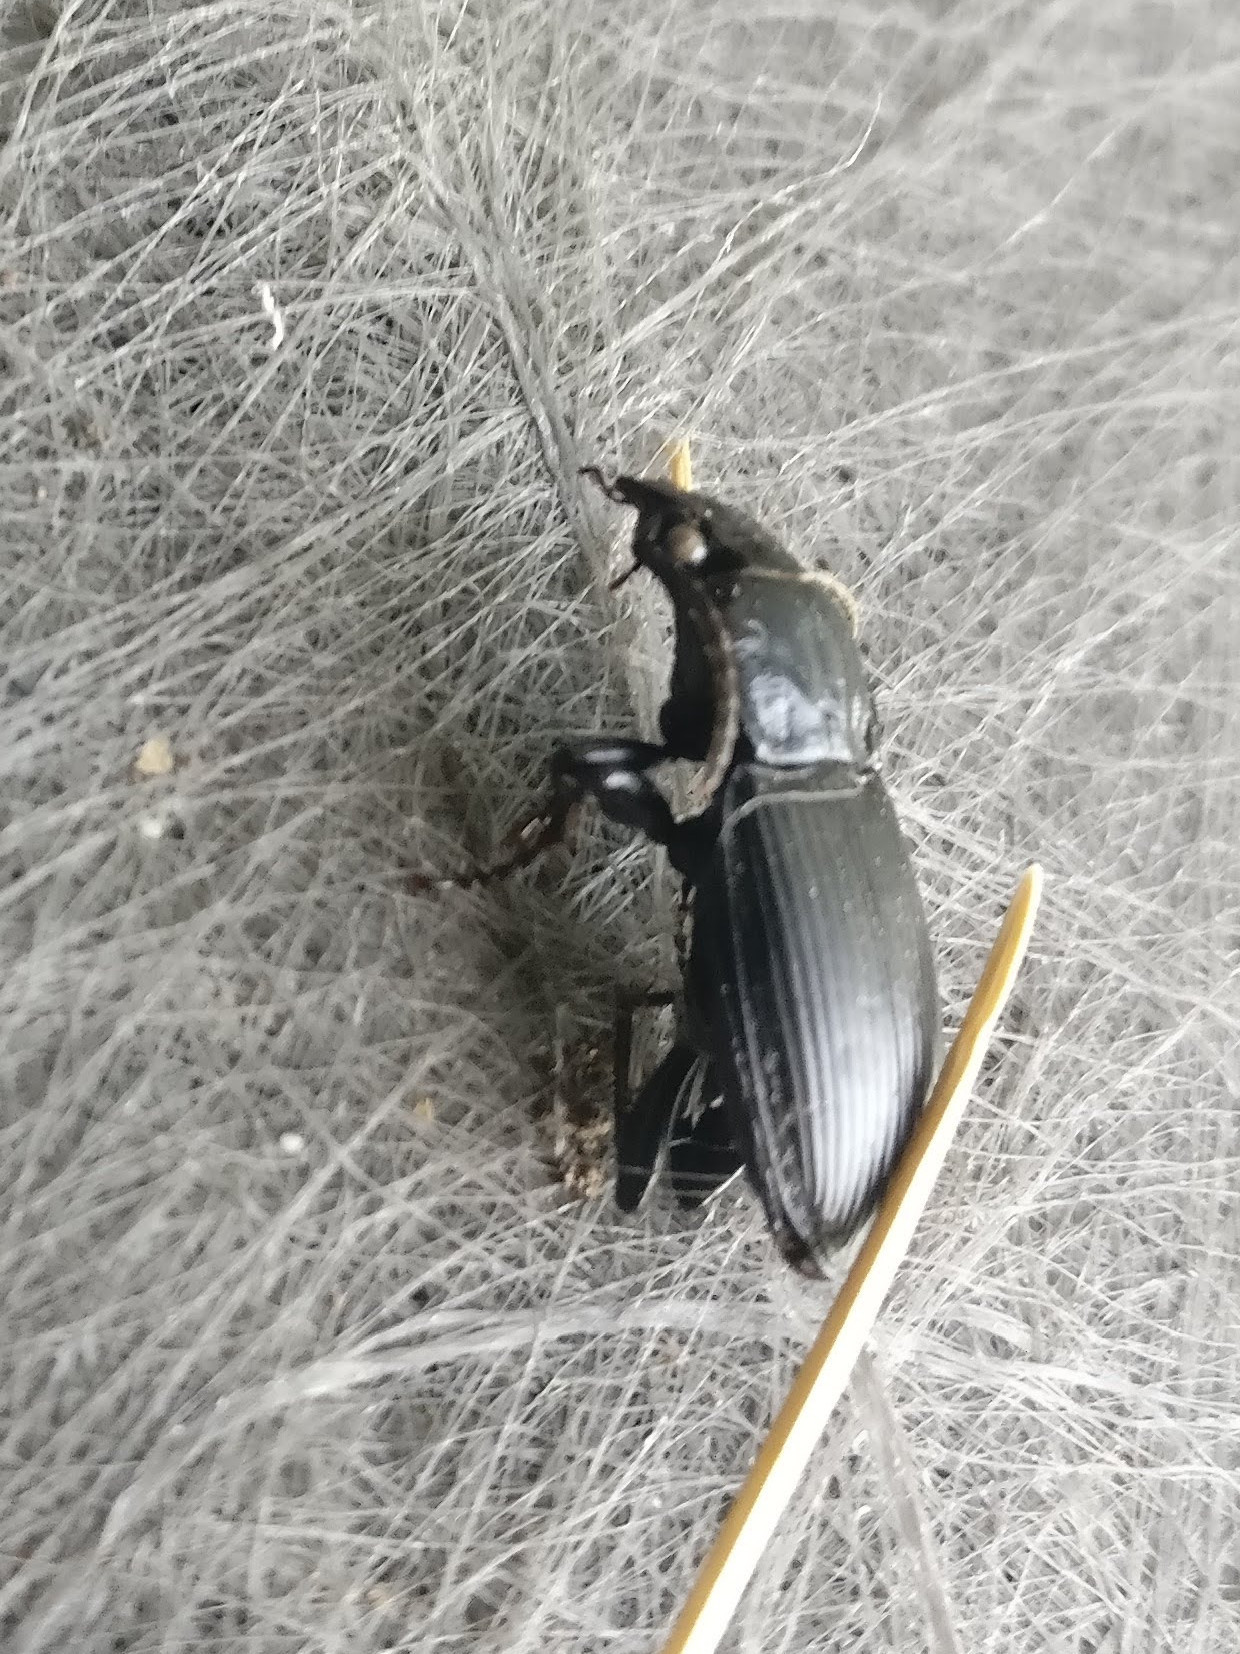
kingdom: Animalia
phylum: Arthropoda
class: Insecta
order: Coleoptera
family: Carabidae
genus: Pterostichus
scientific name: Pterostichus melanarius
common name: European dark harp ground beetle
